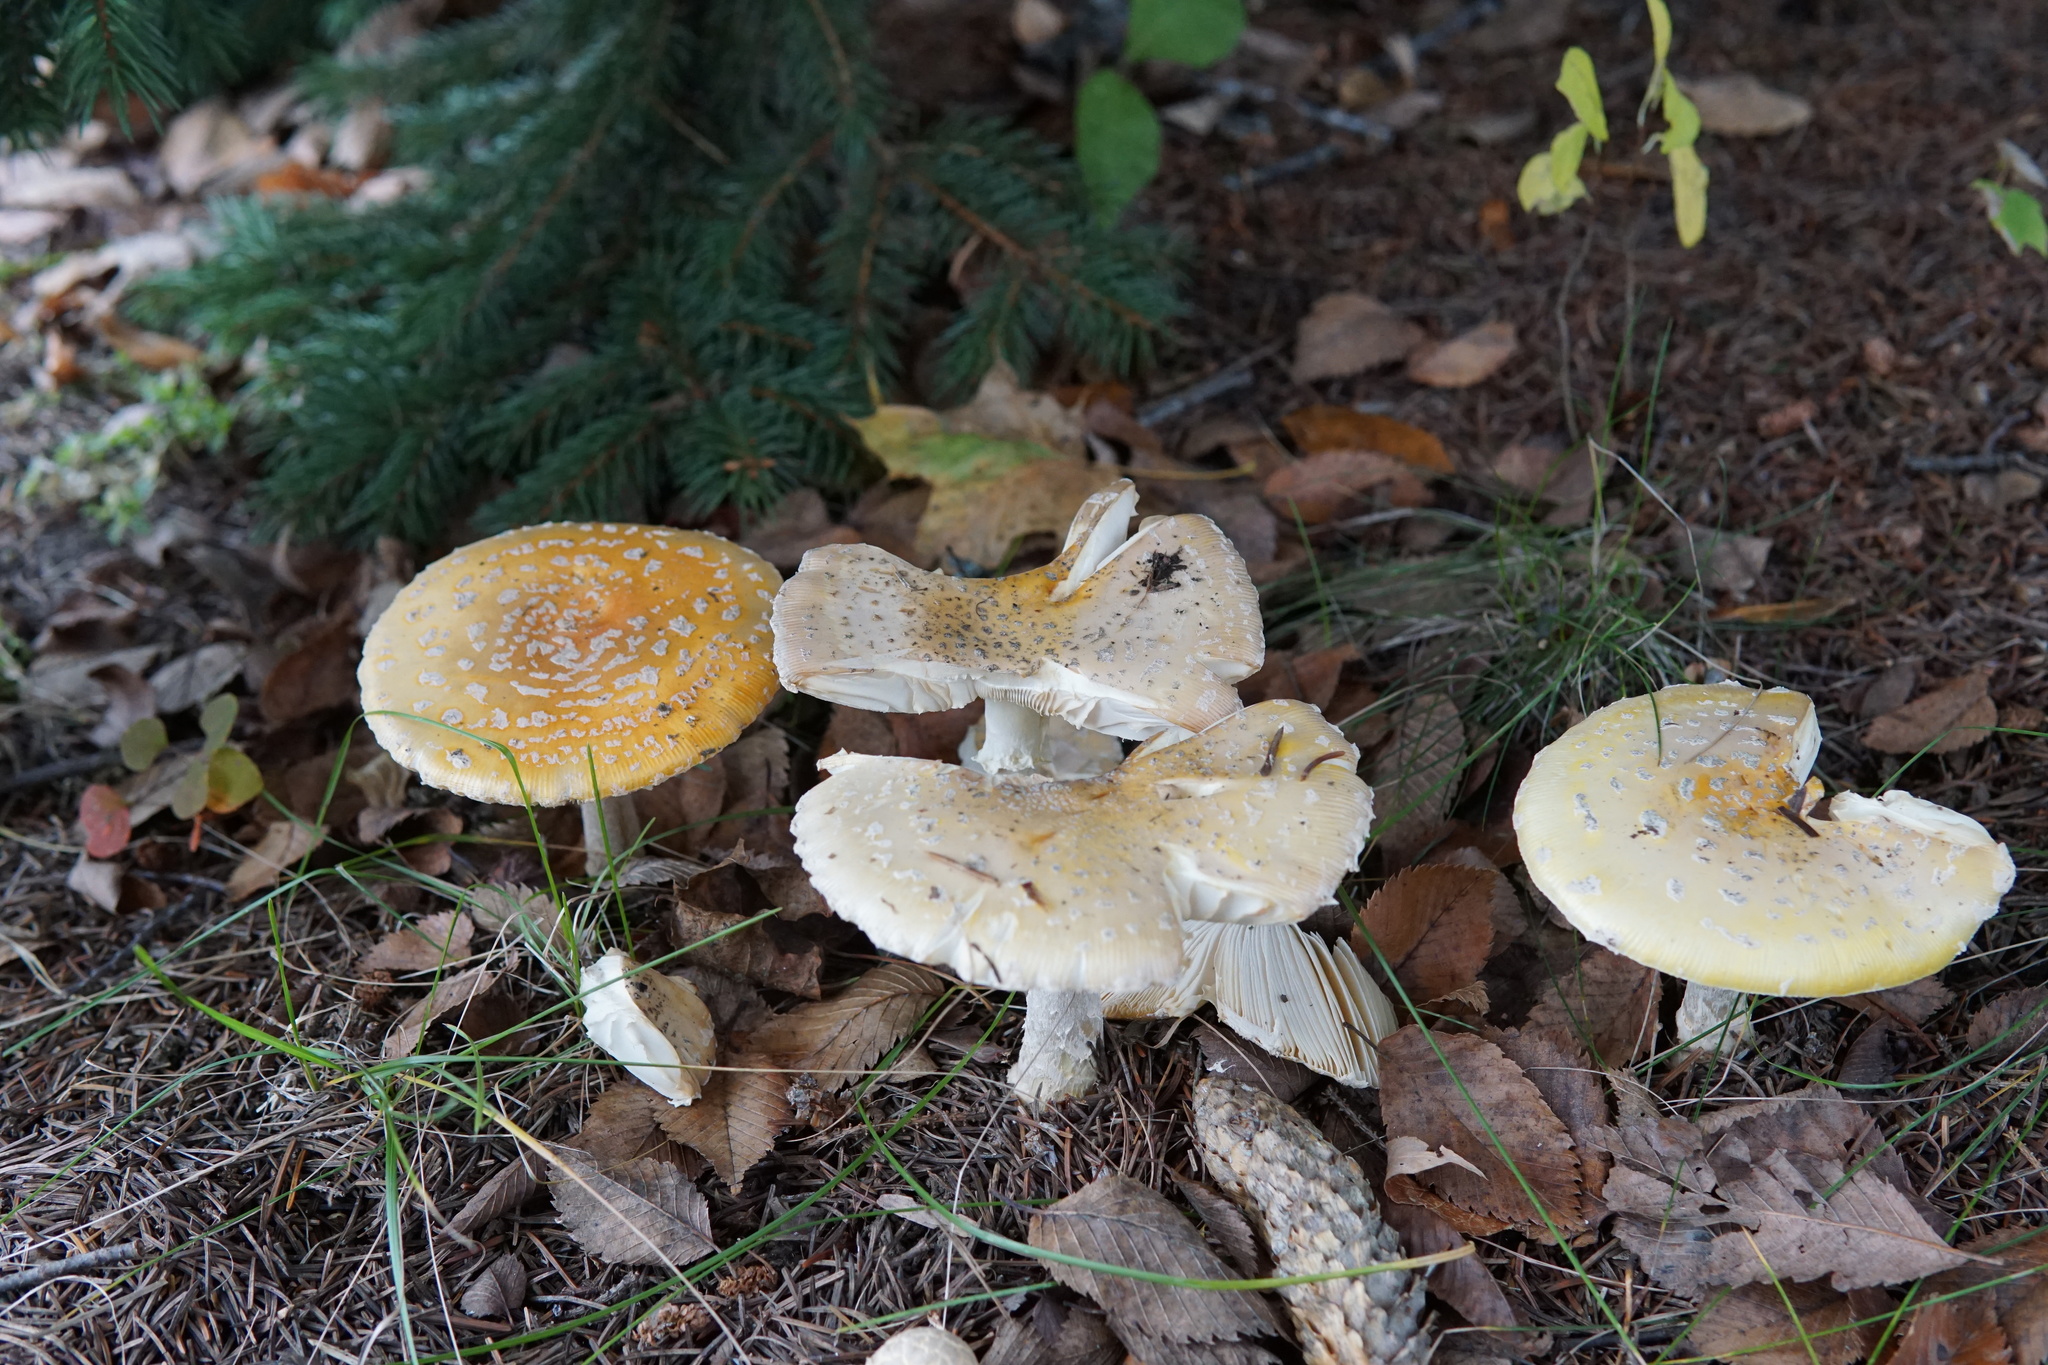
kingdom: Fungi
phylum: Basidiomycota
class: Agaricomycetes
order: Agaricales
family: Amanitaceae
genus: Amanita
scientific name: Amanita muscaria
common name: Fly agaric
